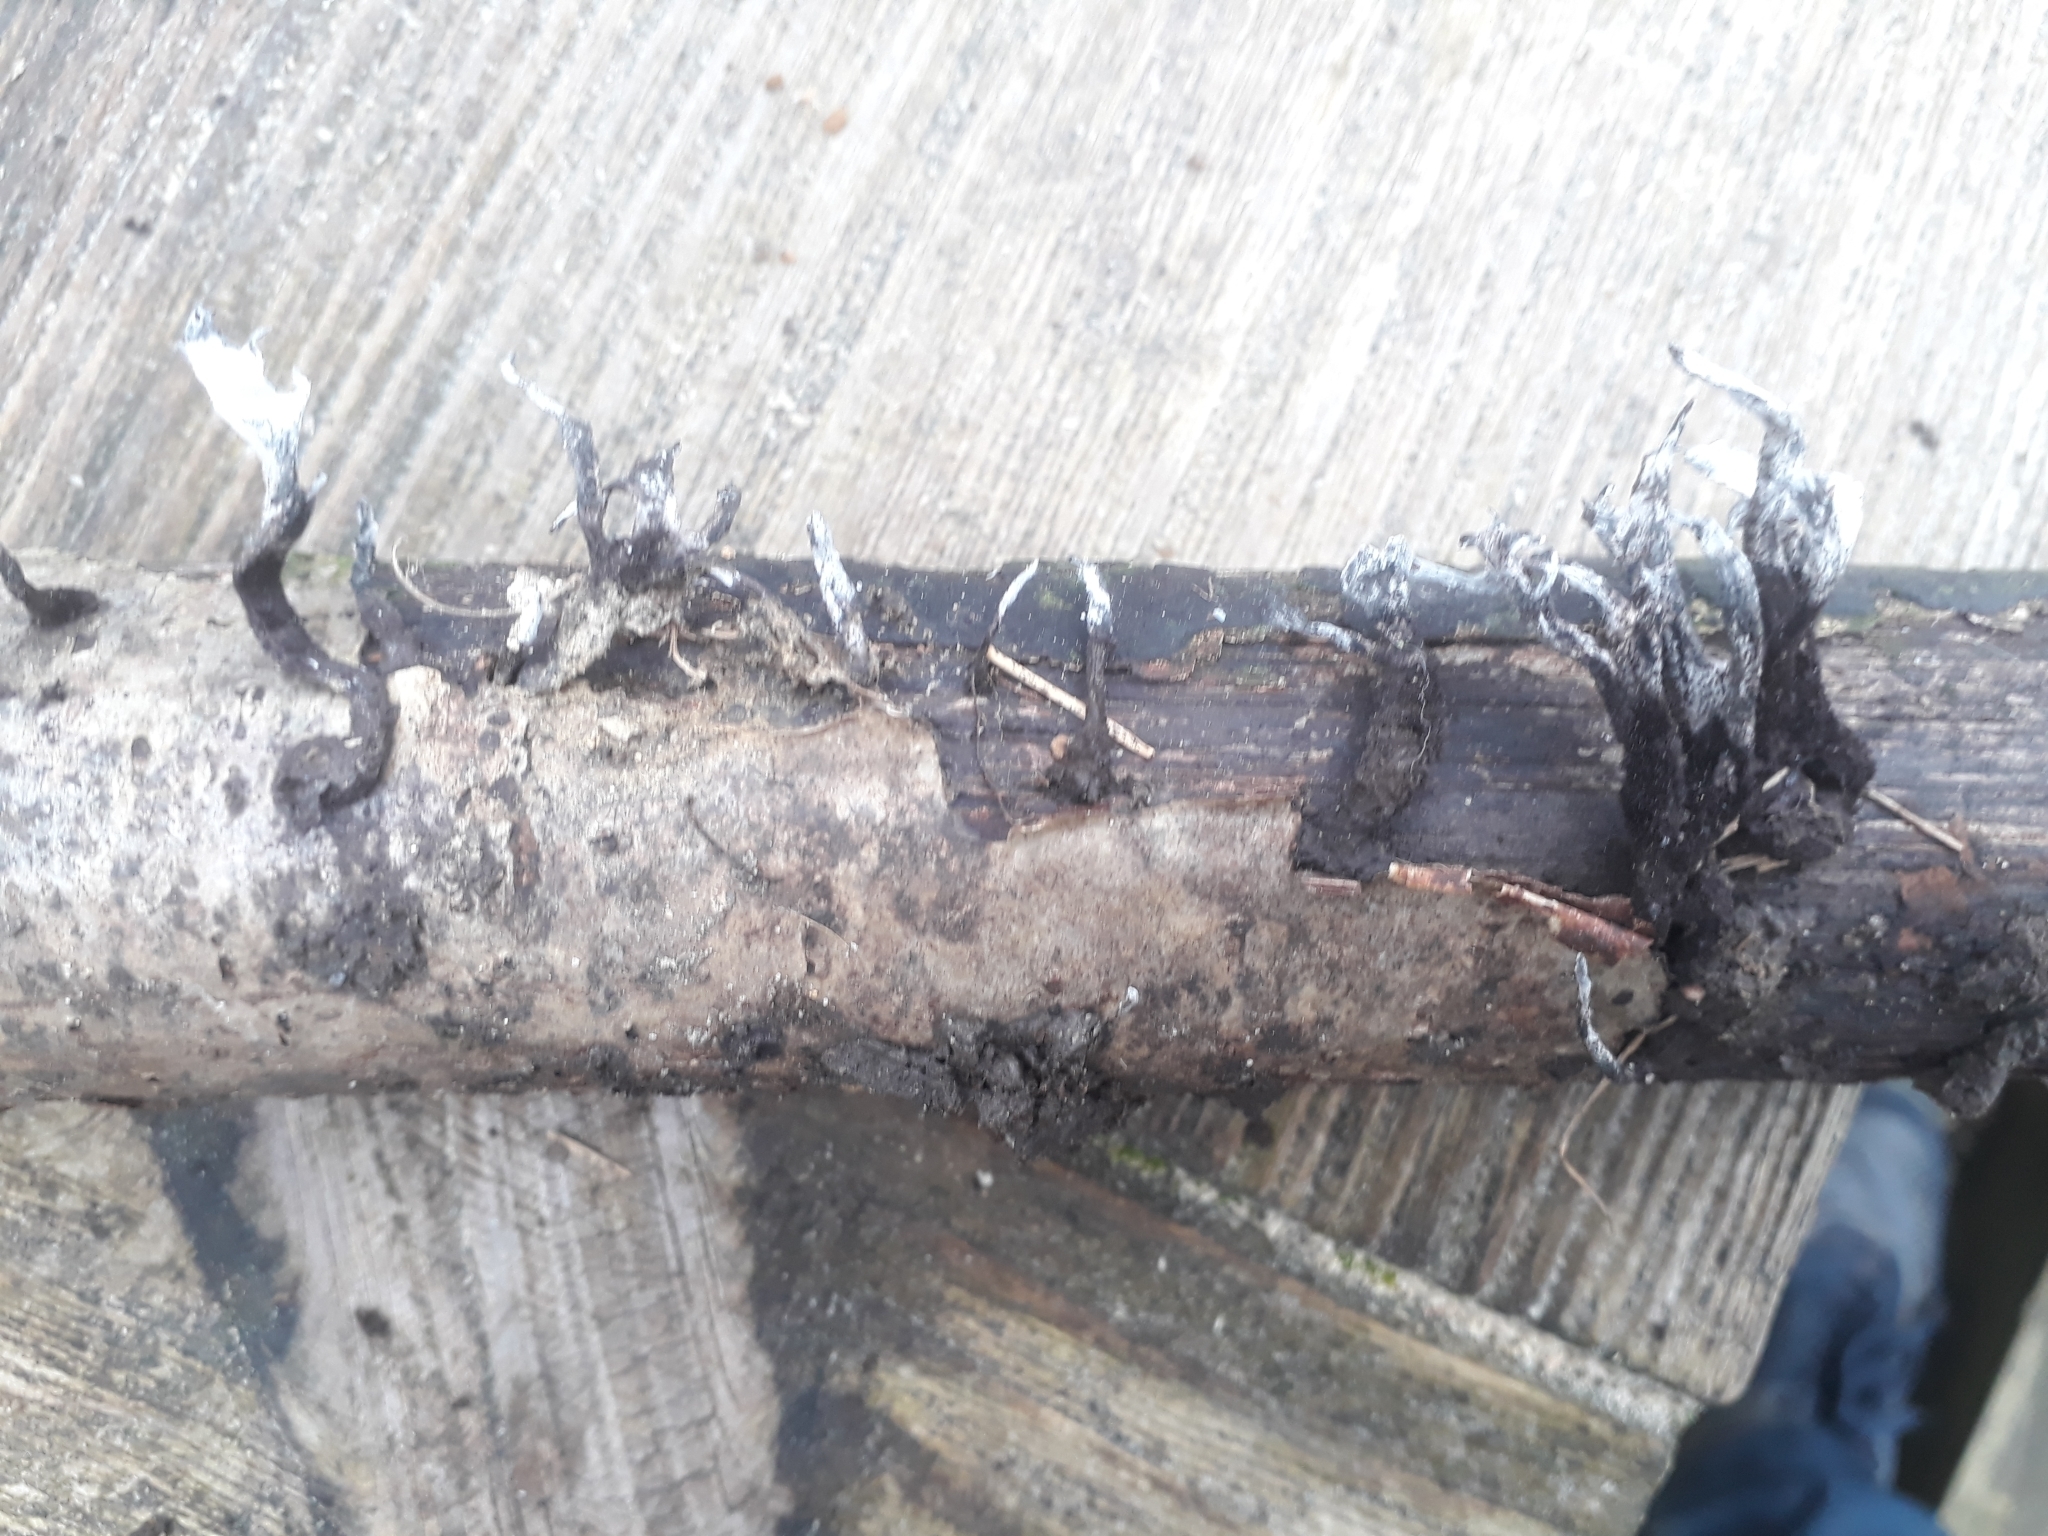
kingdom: Fungi
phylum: Ascomycota
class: Sordariomycetes
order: Xylariales
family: Xylariaceae
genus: Xylaria
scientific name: Xylaria hypoxylon
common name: Candle-snuff fungus
